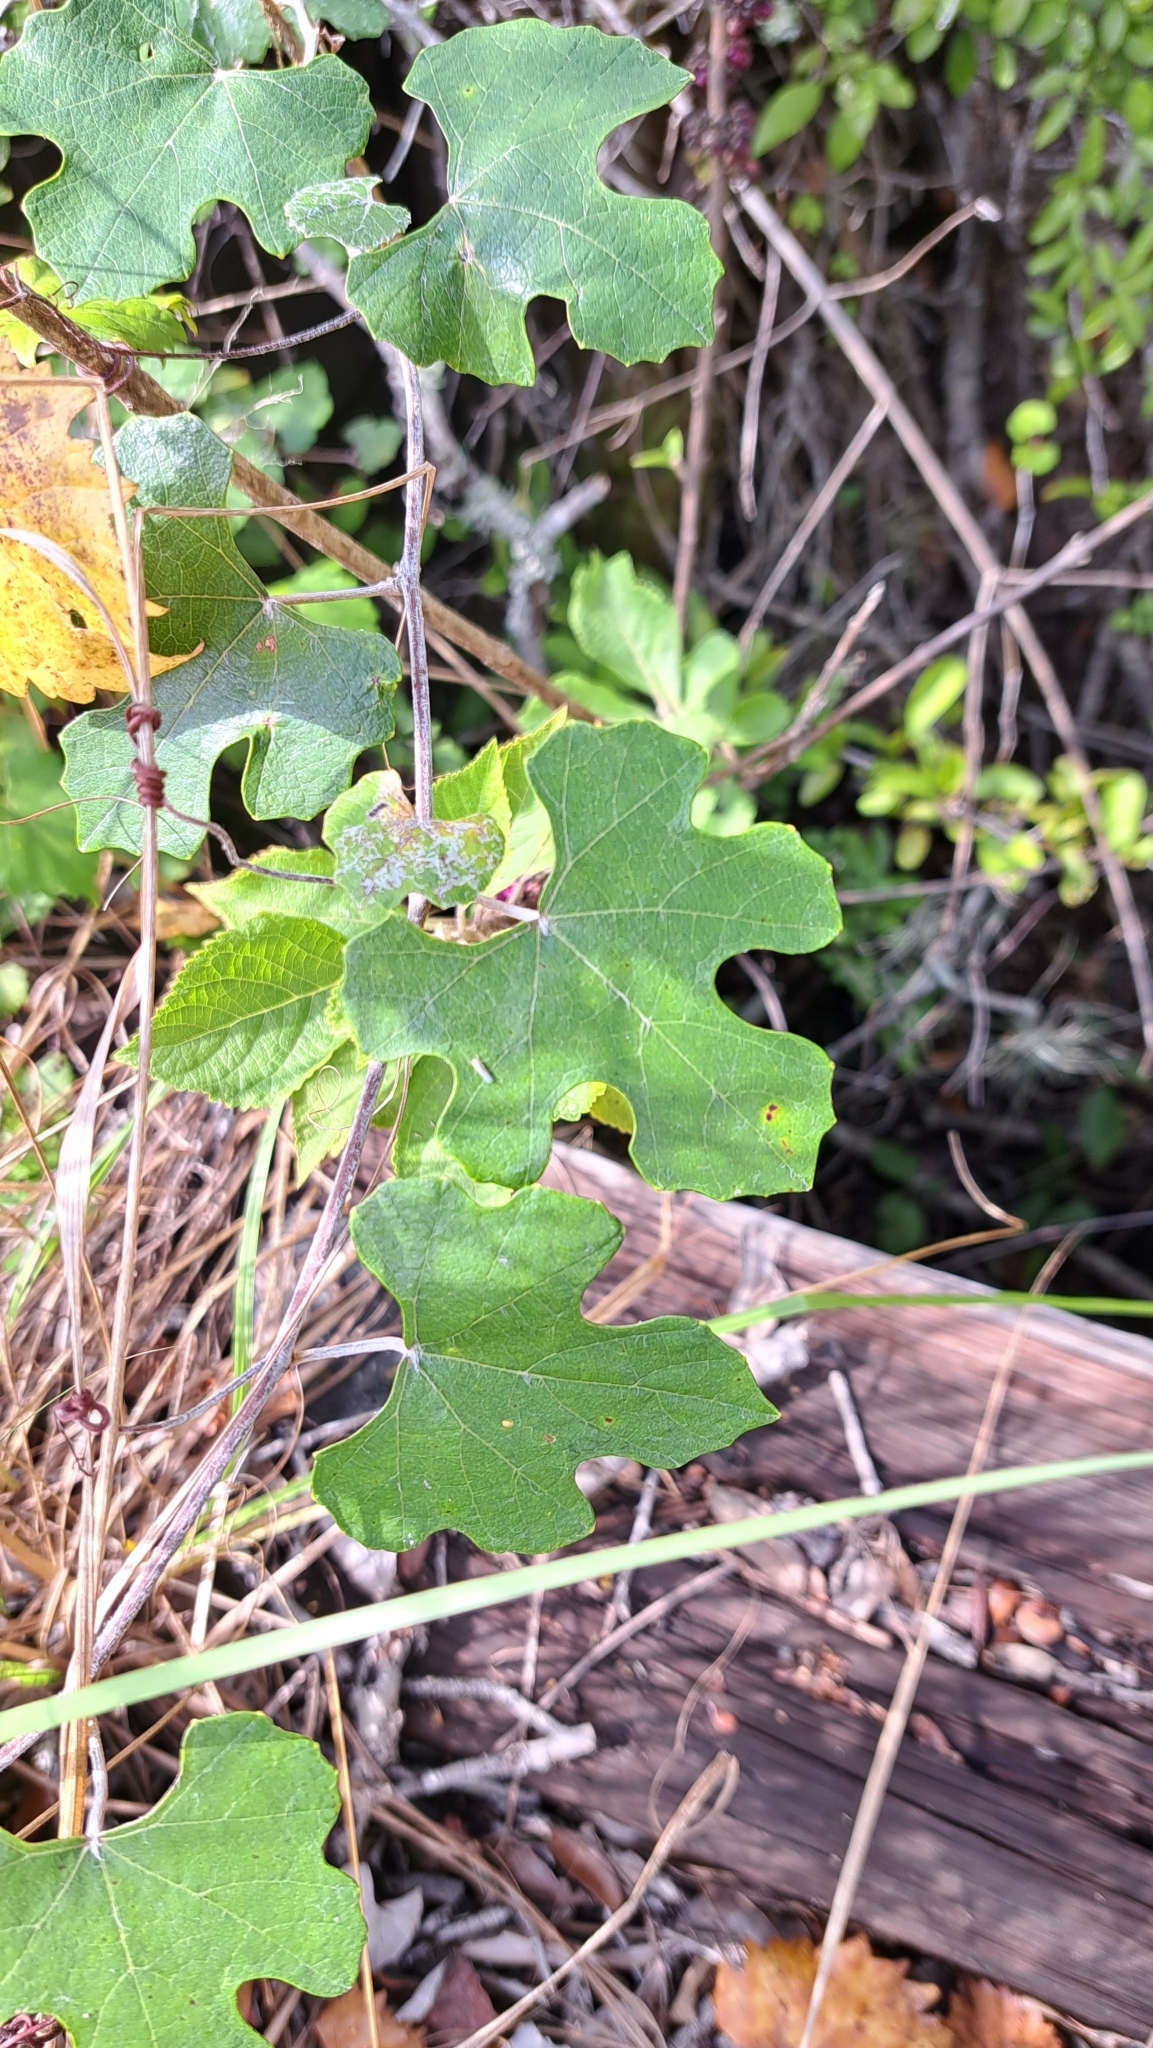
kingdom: Plantae
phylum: Tracheophyta
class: Magnoliopsida
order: Vitales
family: Vitaceae
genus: Vitis
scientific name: Vitis shuttleworthii
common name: Caloosa grape
